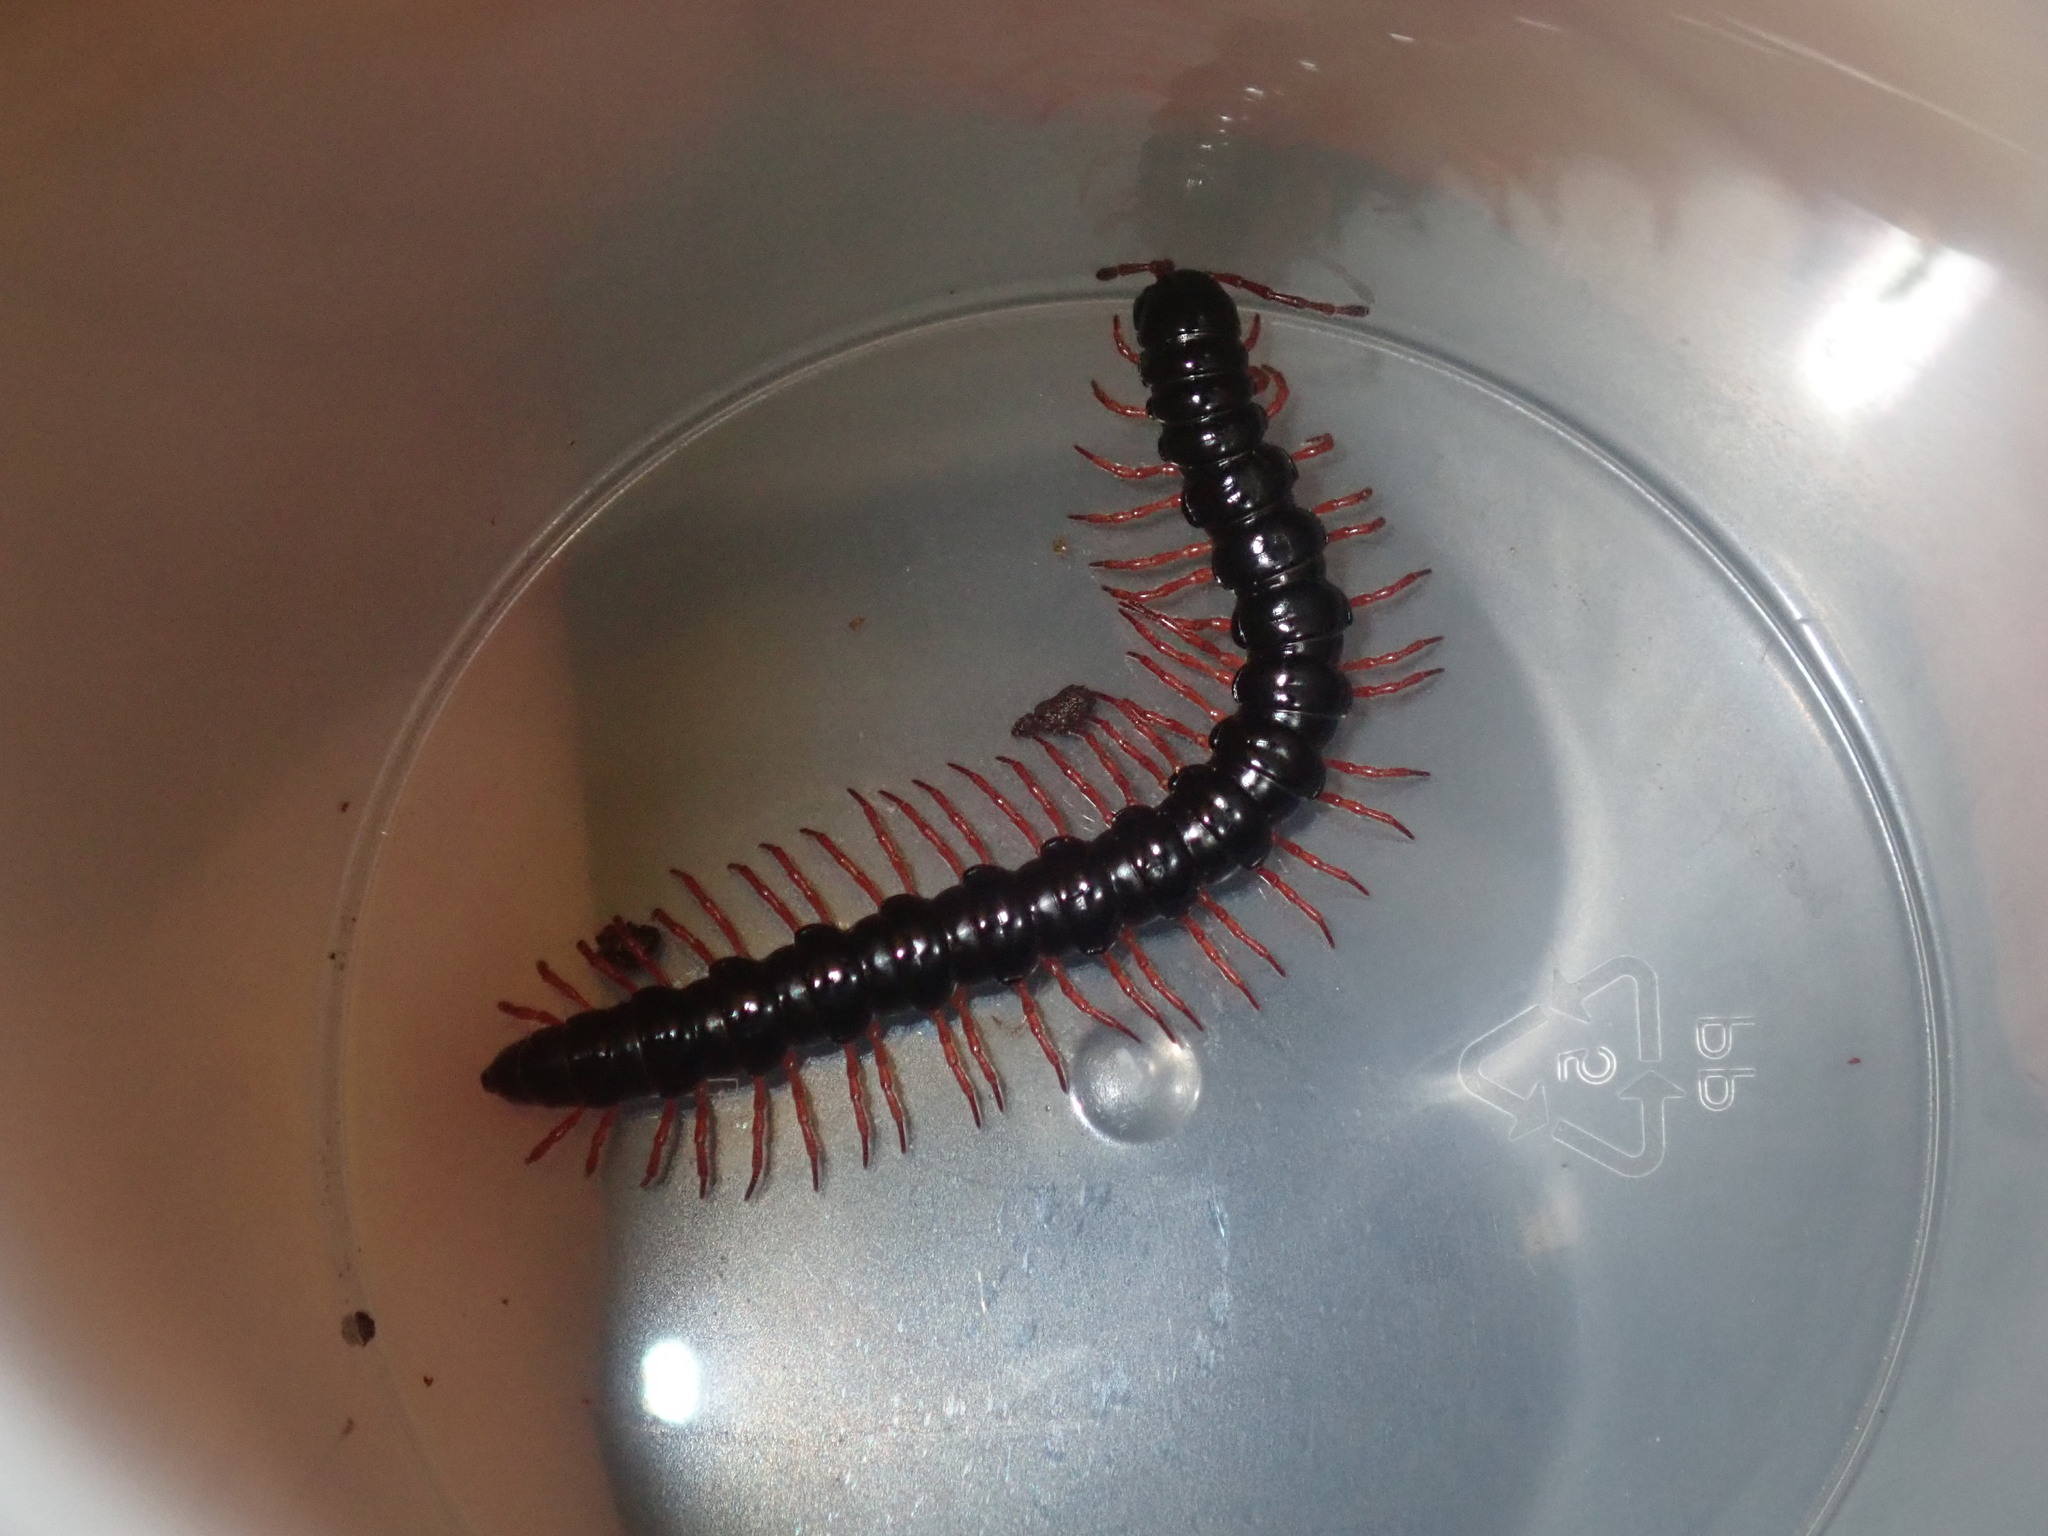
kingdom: Animalia
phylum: Arthropoda
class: Diplopoda
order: Polydesmida
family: Paradoxosomatidae
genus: Heterocladosoma
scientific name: Heterocladosoma
